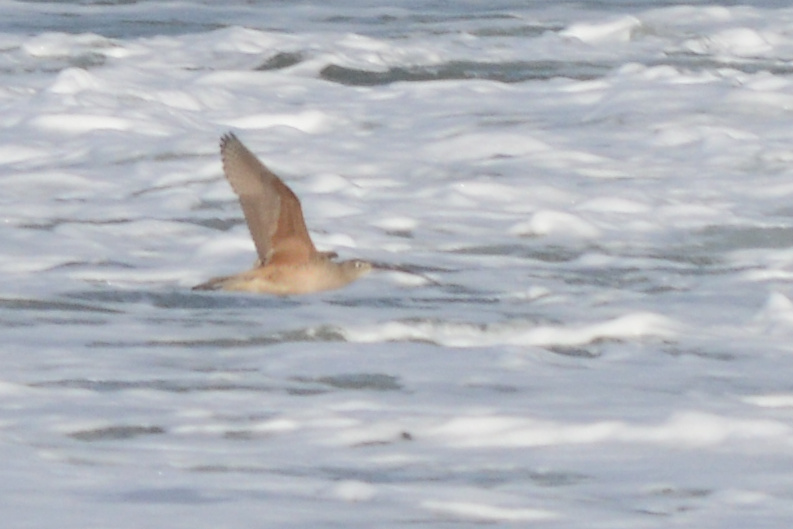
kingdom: Animalia
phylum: Chordata
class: Aves
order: Charadriiformes
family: Scolopacidae
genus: Numenius
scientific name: Numenius americanus
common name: Long-billed curlew
